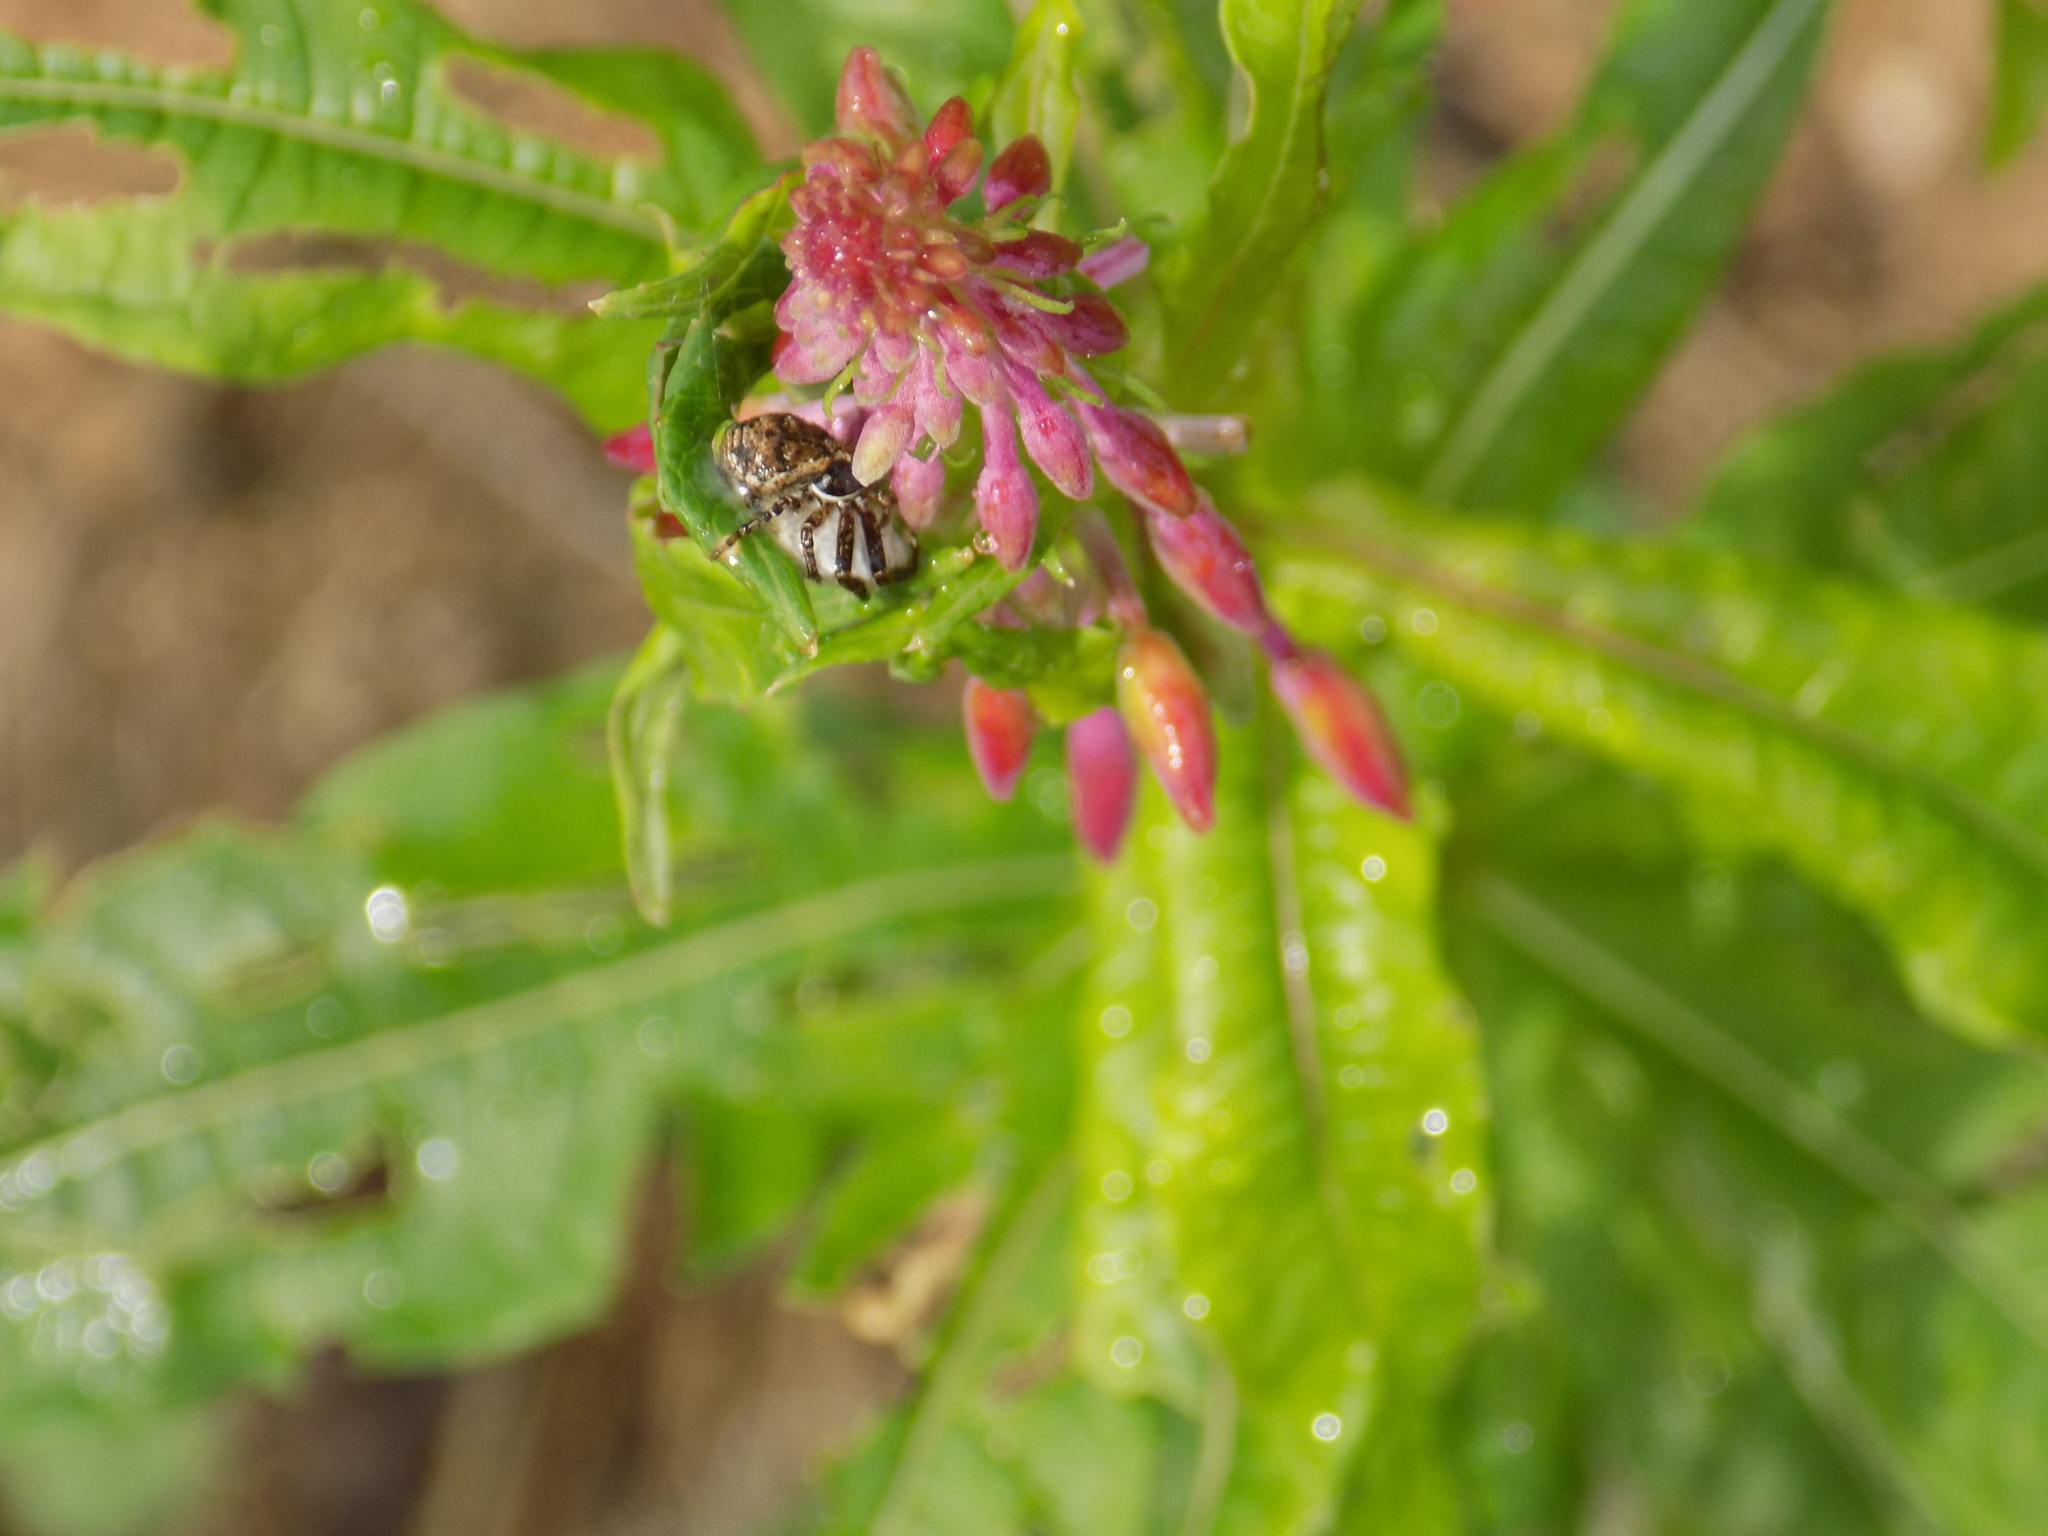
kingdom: Plantae
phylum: Tracheophyta
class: Magnoliopsida
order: Myrtales
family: Onagraceae
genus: Chamaenerion
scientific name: Chamaenerion angustifolium
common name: Fireweed
